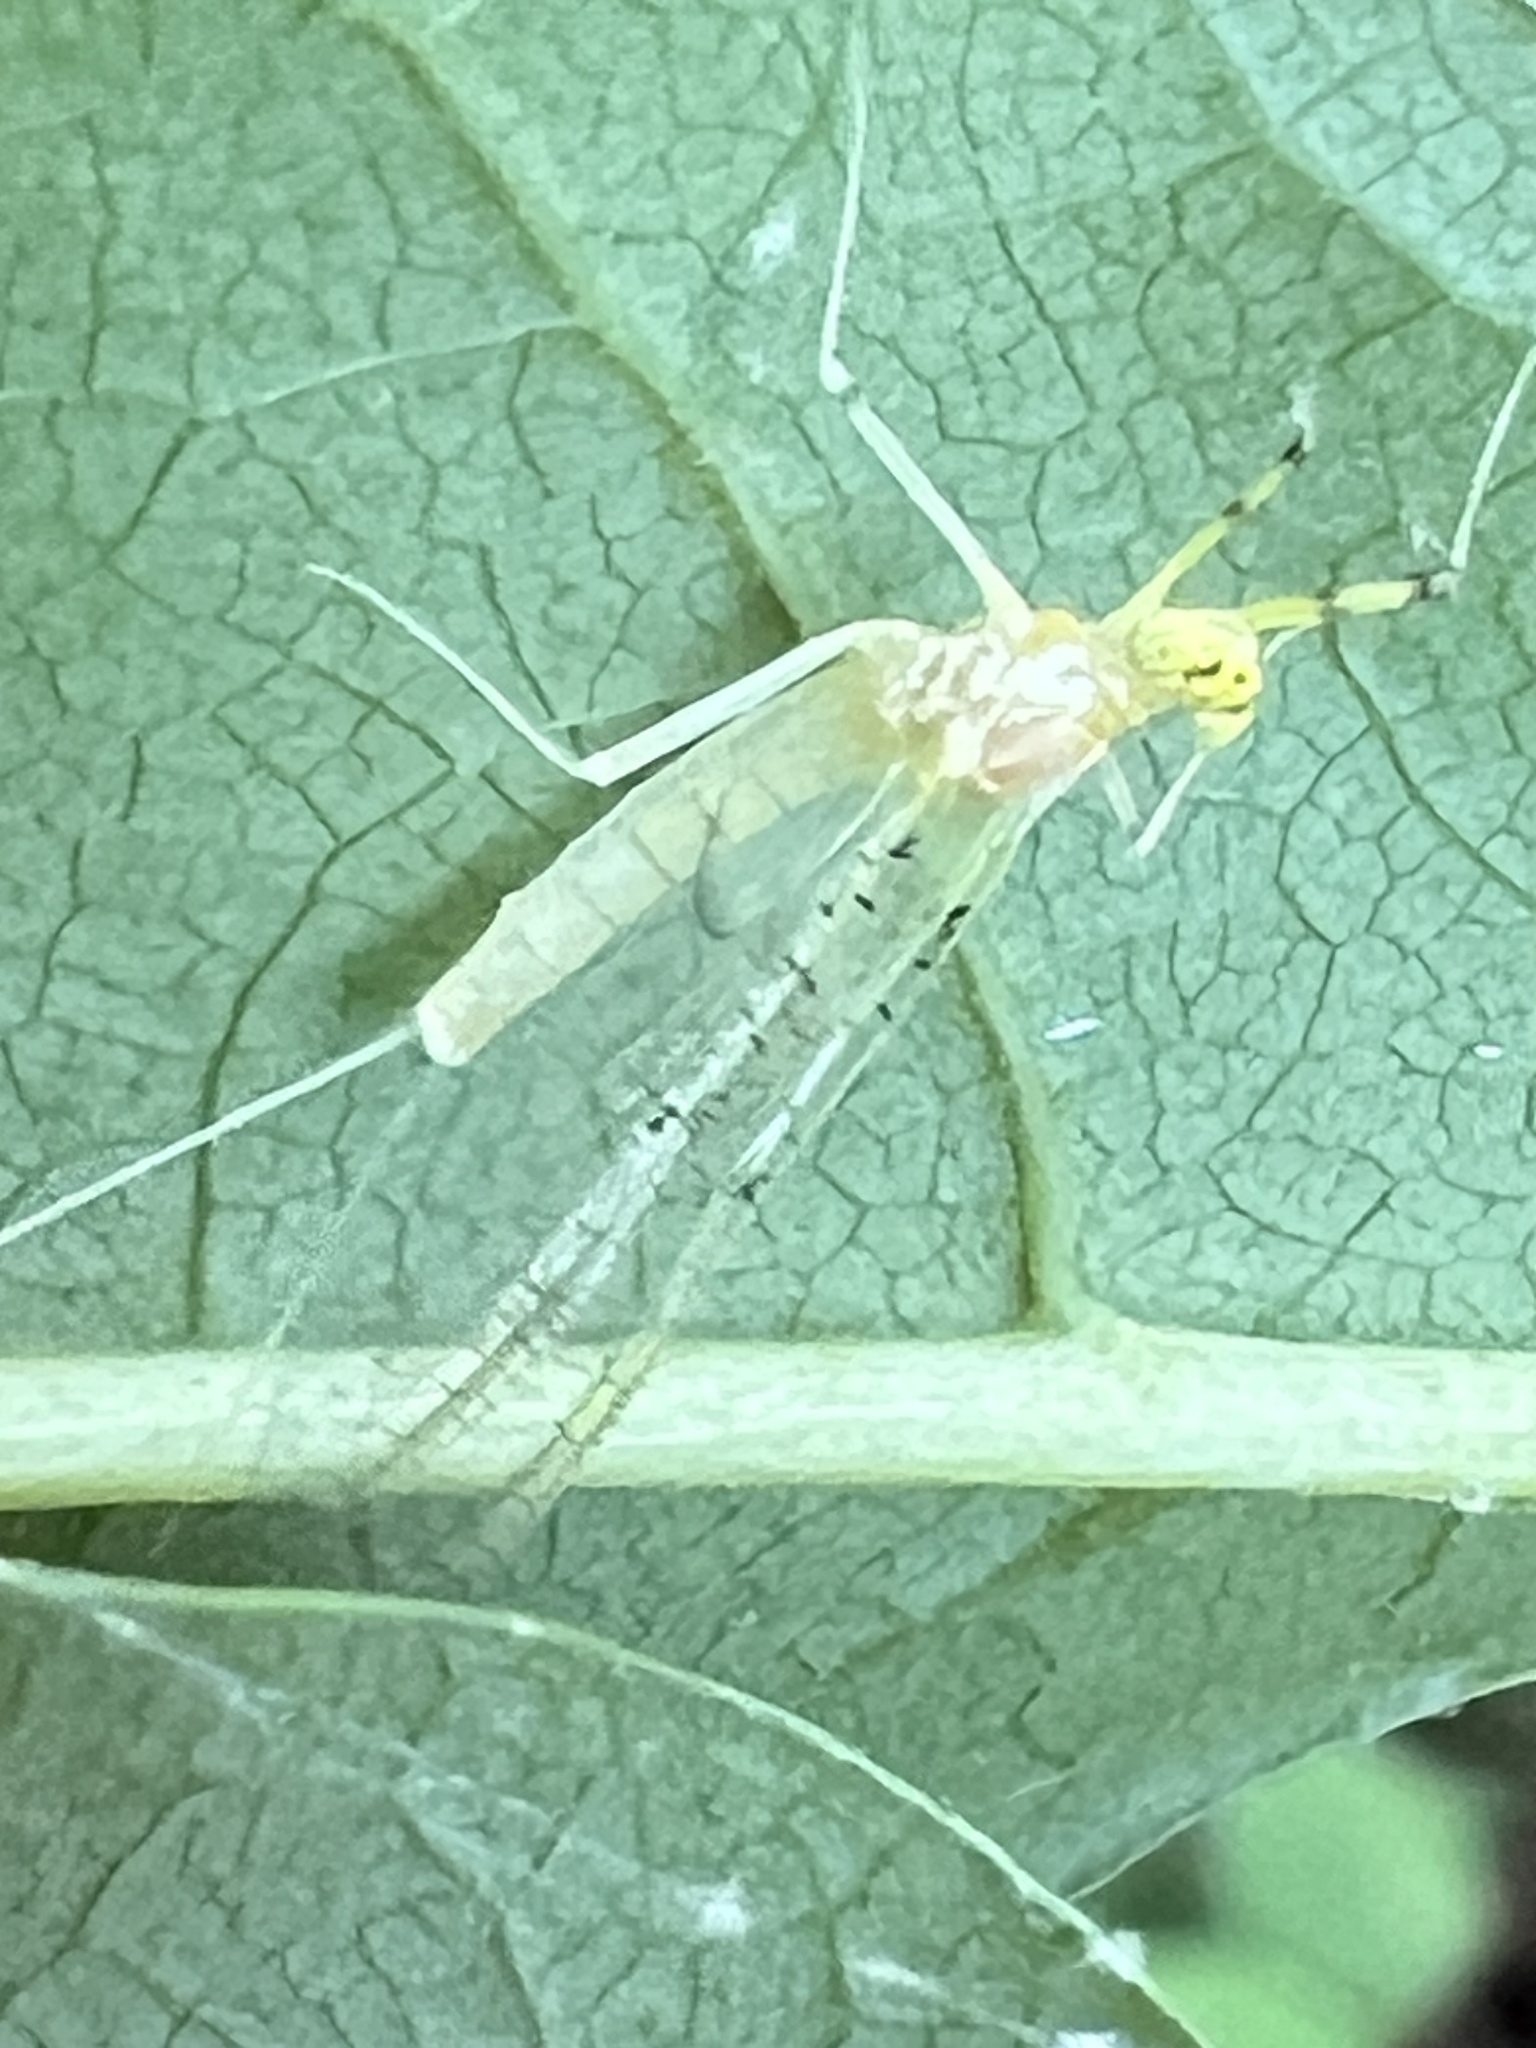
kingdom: Animalia
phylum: Arthropoda
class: Insecta
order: Ephemeroptera
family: Heptageniidae
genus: Stenacron
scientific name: Stenacron interpunctatum
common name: Orange cahill
